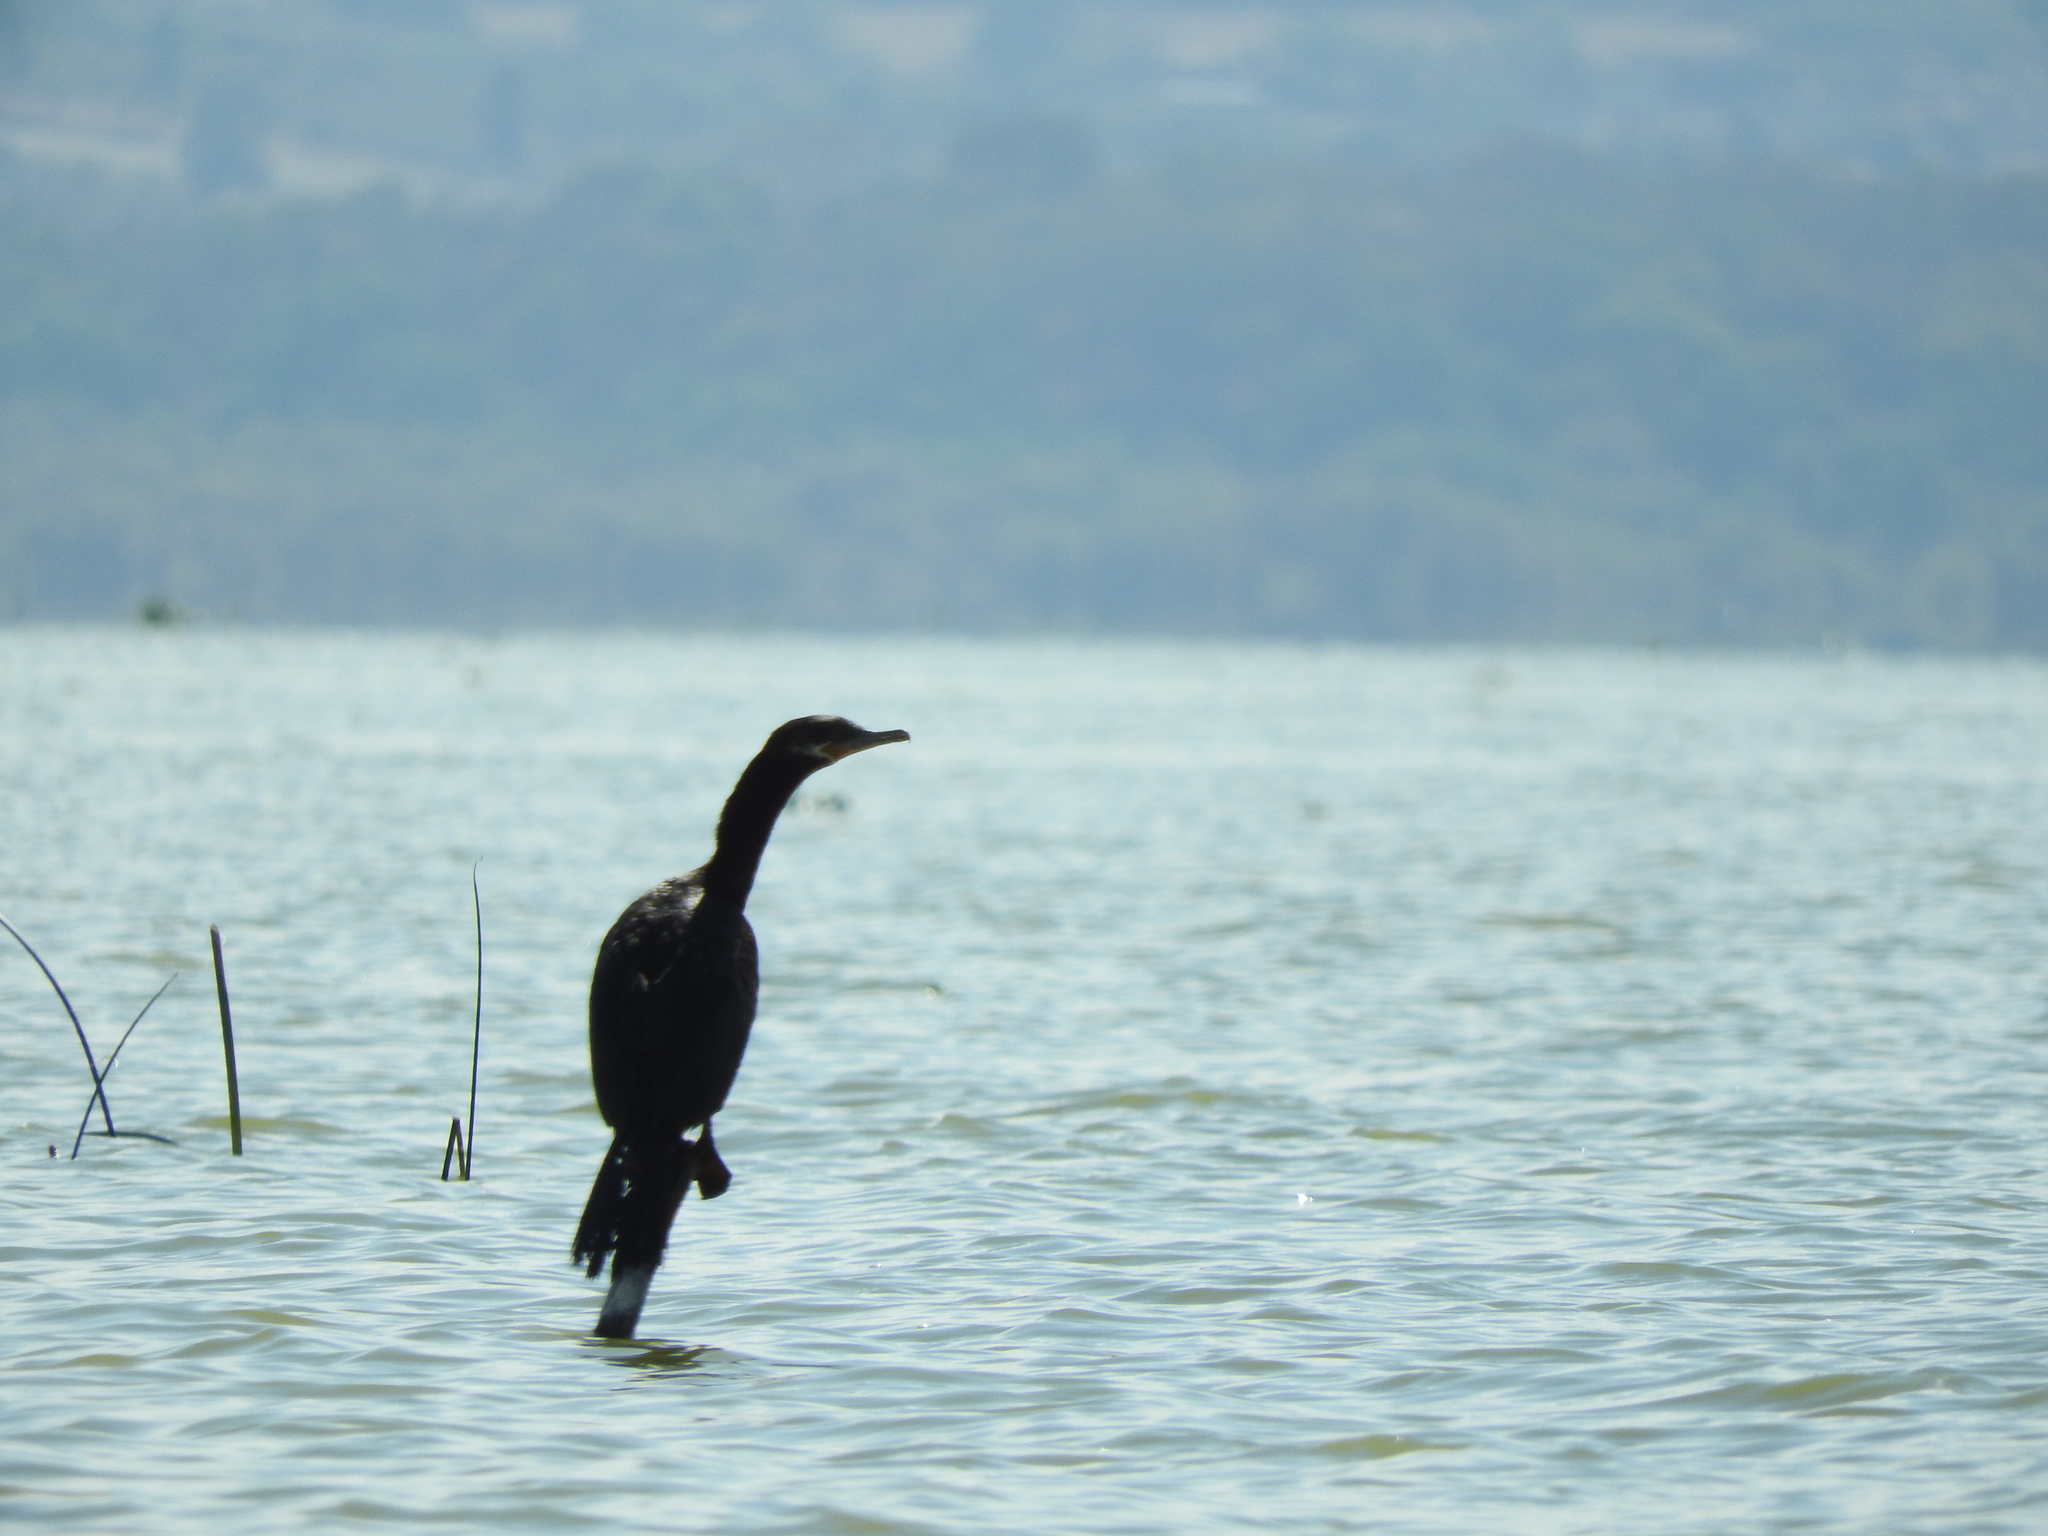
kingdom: Animalia
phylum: Chordata
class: Aves
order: Suliformes
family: Phalacrocoracidae
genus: Phalacrocorax
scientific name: Phalacrocorax brasilianus
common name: Neotropic cormorant
